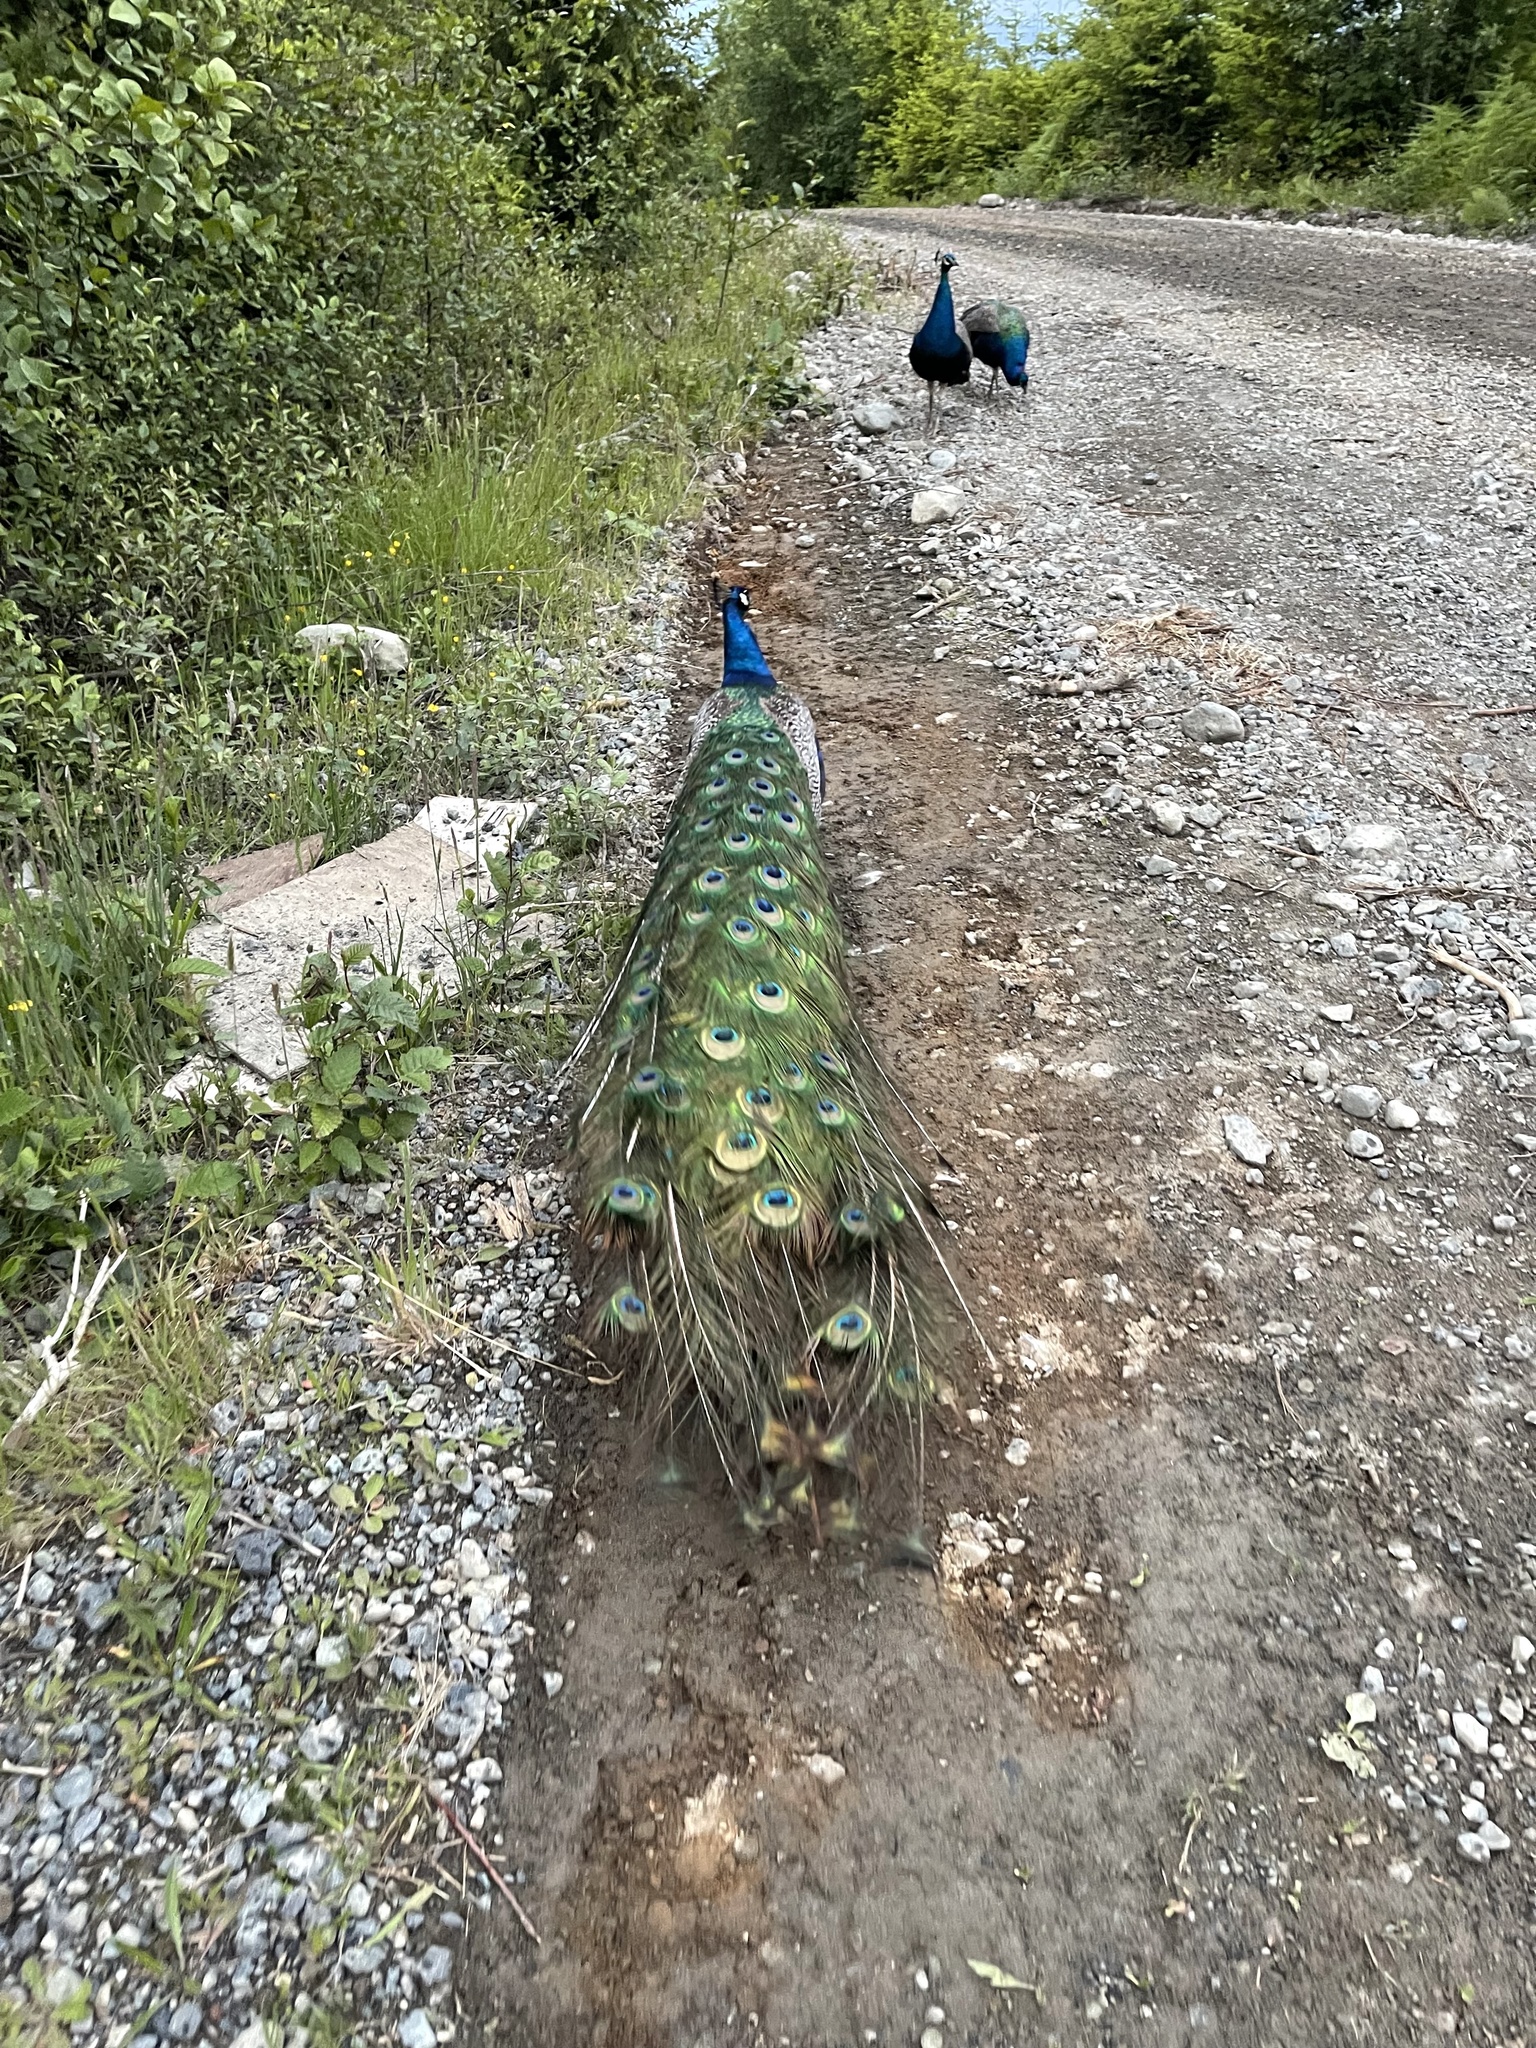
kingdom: Animalia
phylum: Chordata
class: Aves
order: Galliformes
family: Phasianidae
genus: Pavo
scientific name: Pavo cristatus
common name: Indian peafowl
